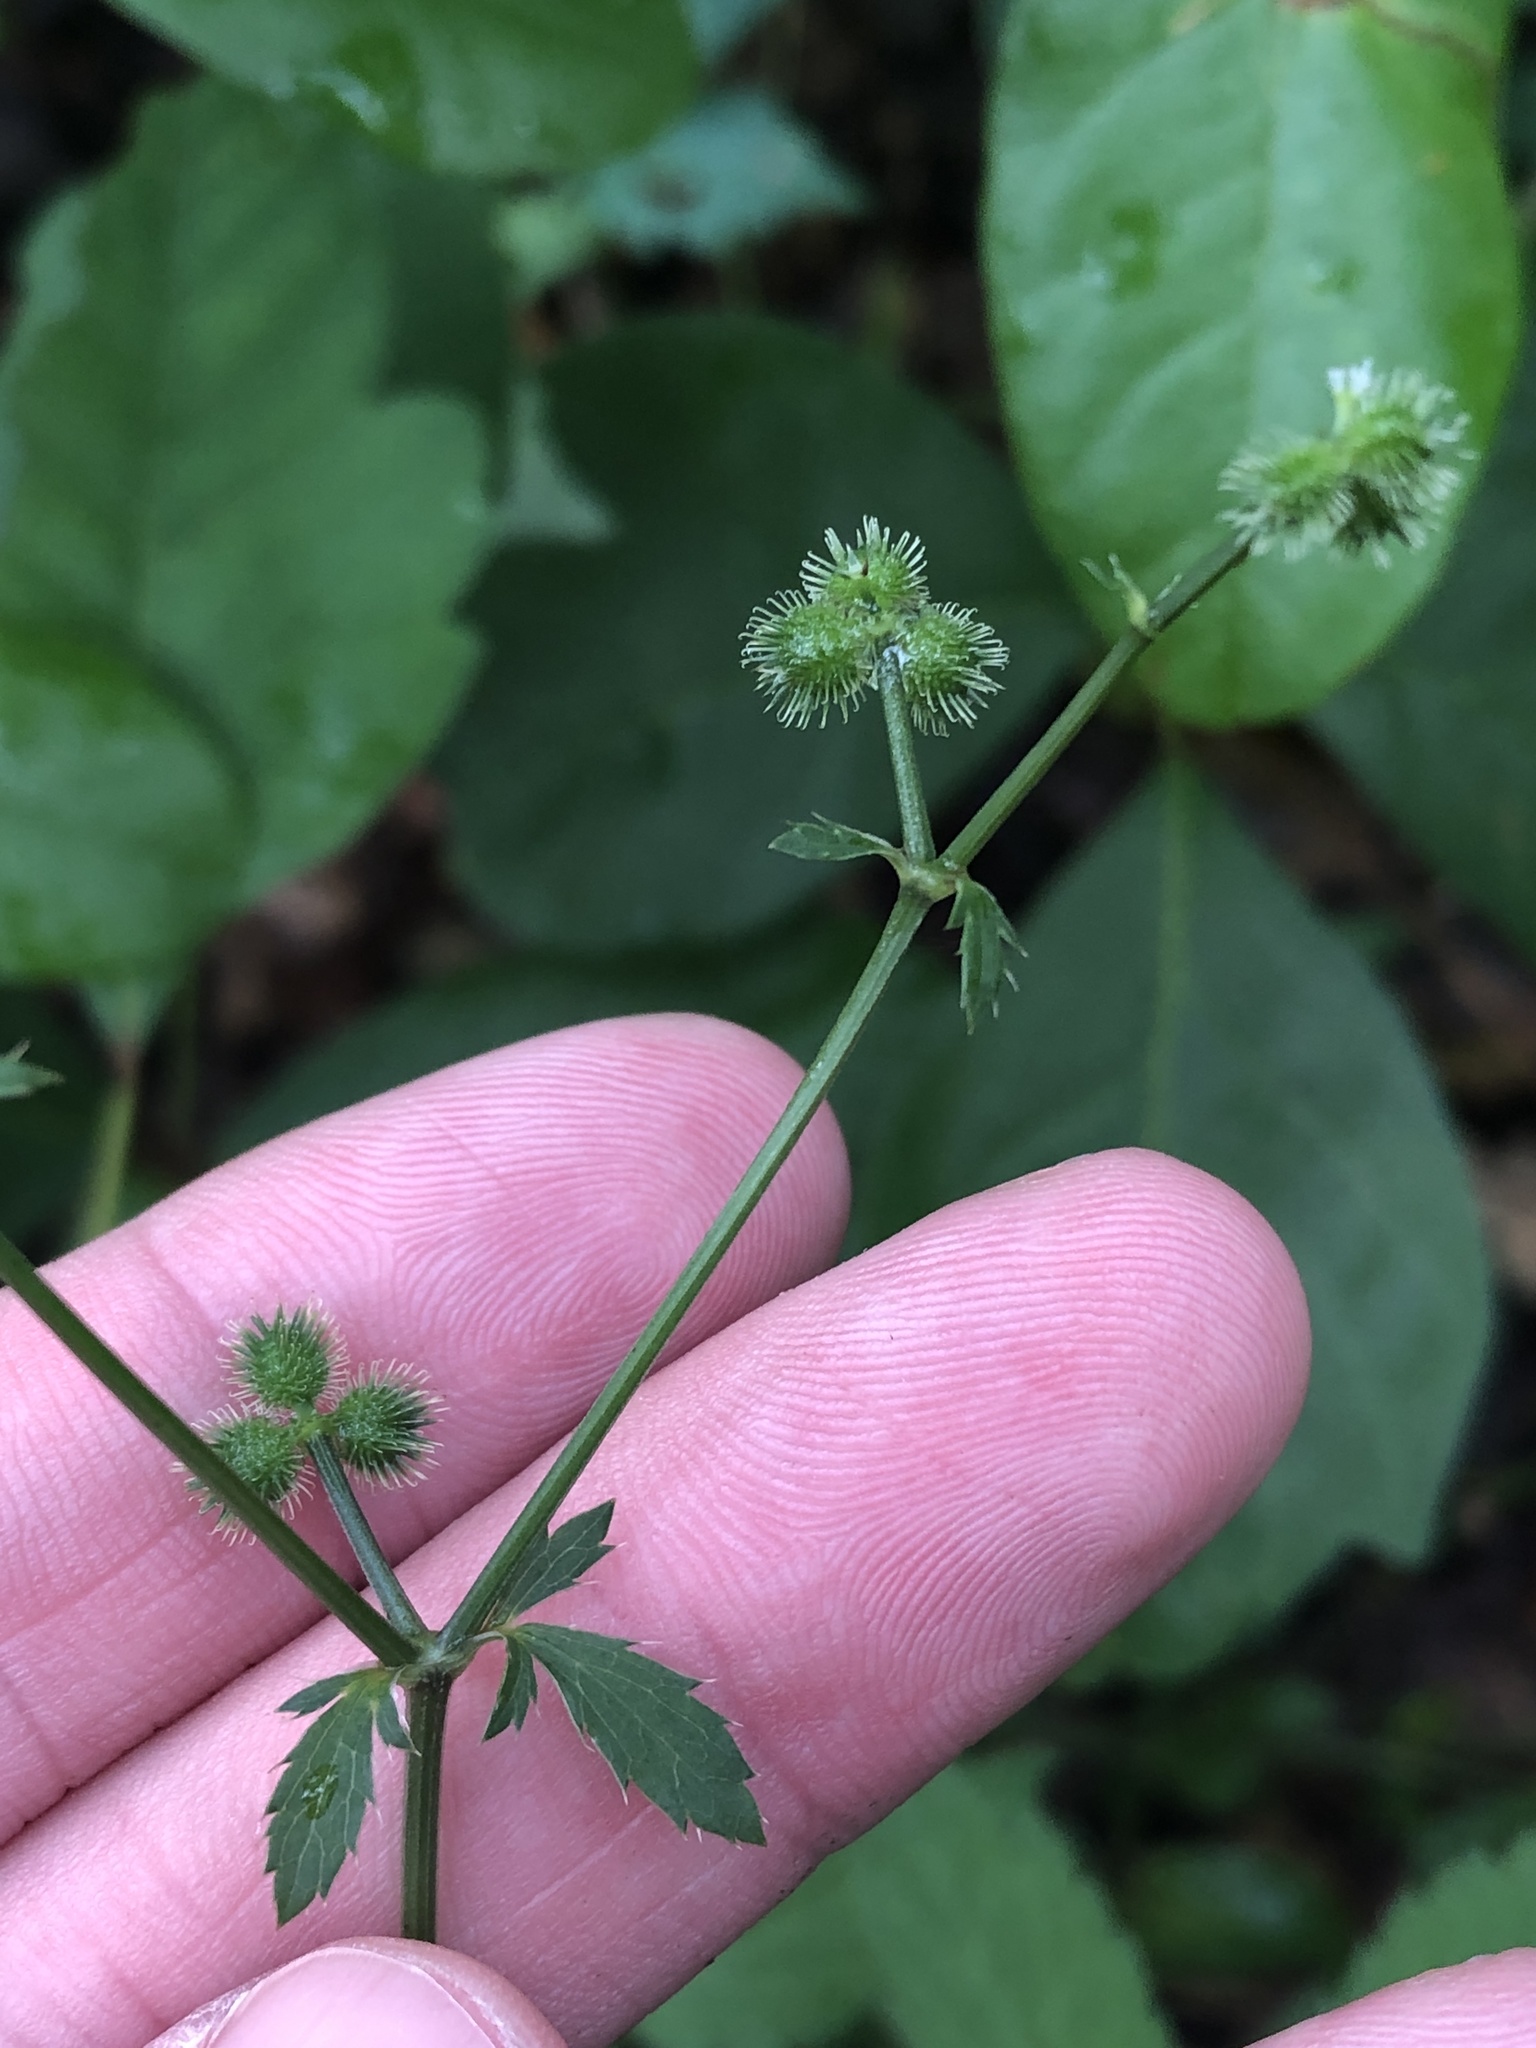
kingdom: Plantae
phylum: Tracheophyta
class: Magnoliopsida
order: Apiales
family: Apiaceae
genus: Sanicula
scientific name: Sanicula canadensis
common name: Canada sanicle
